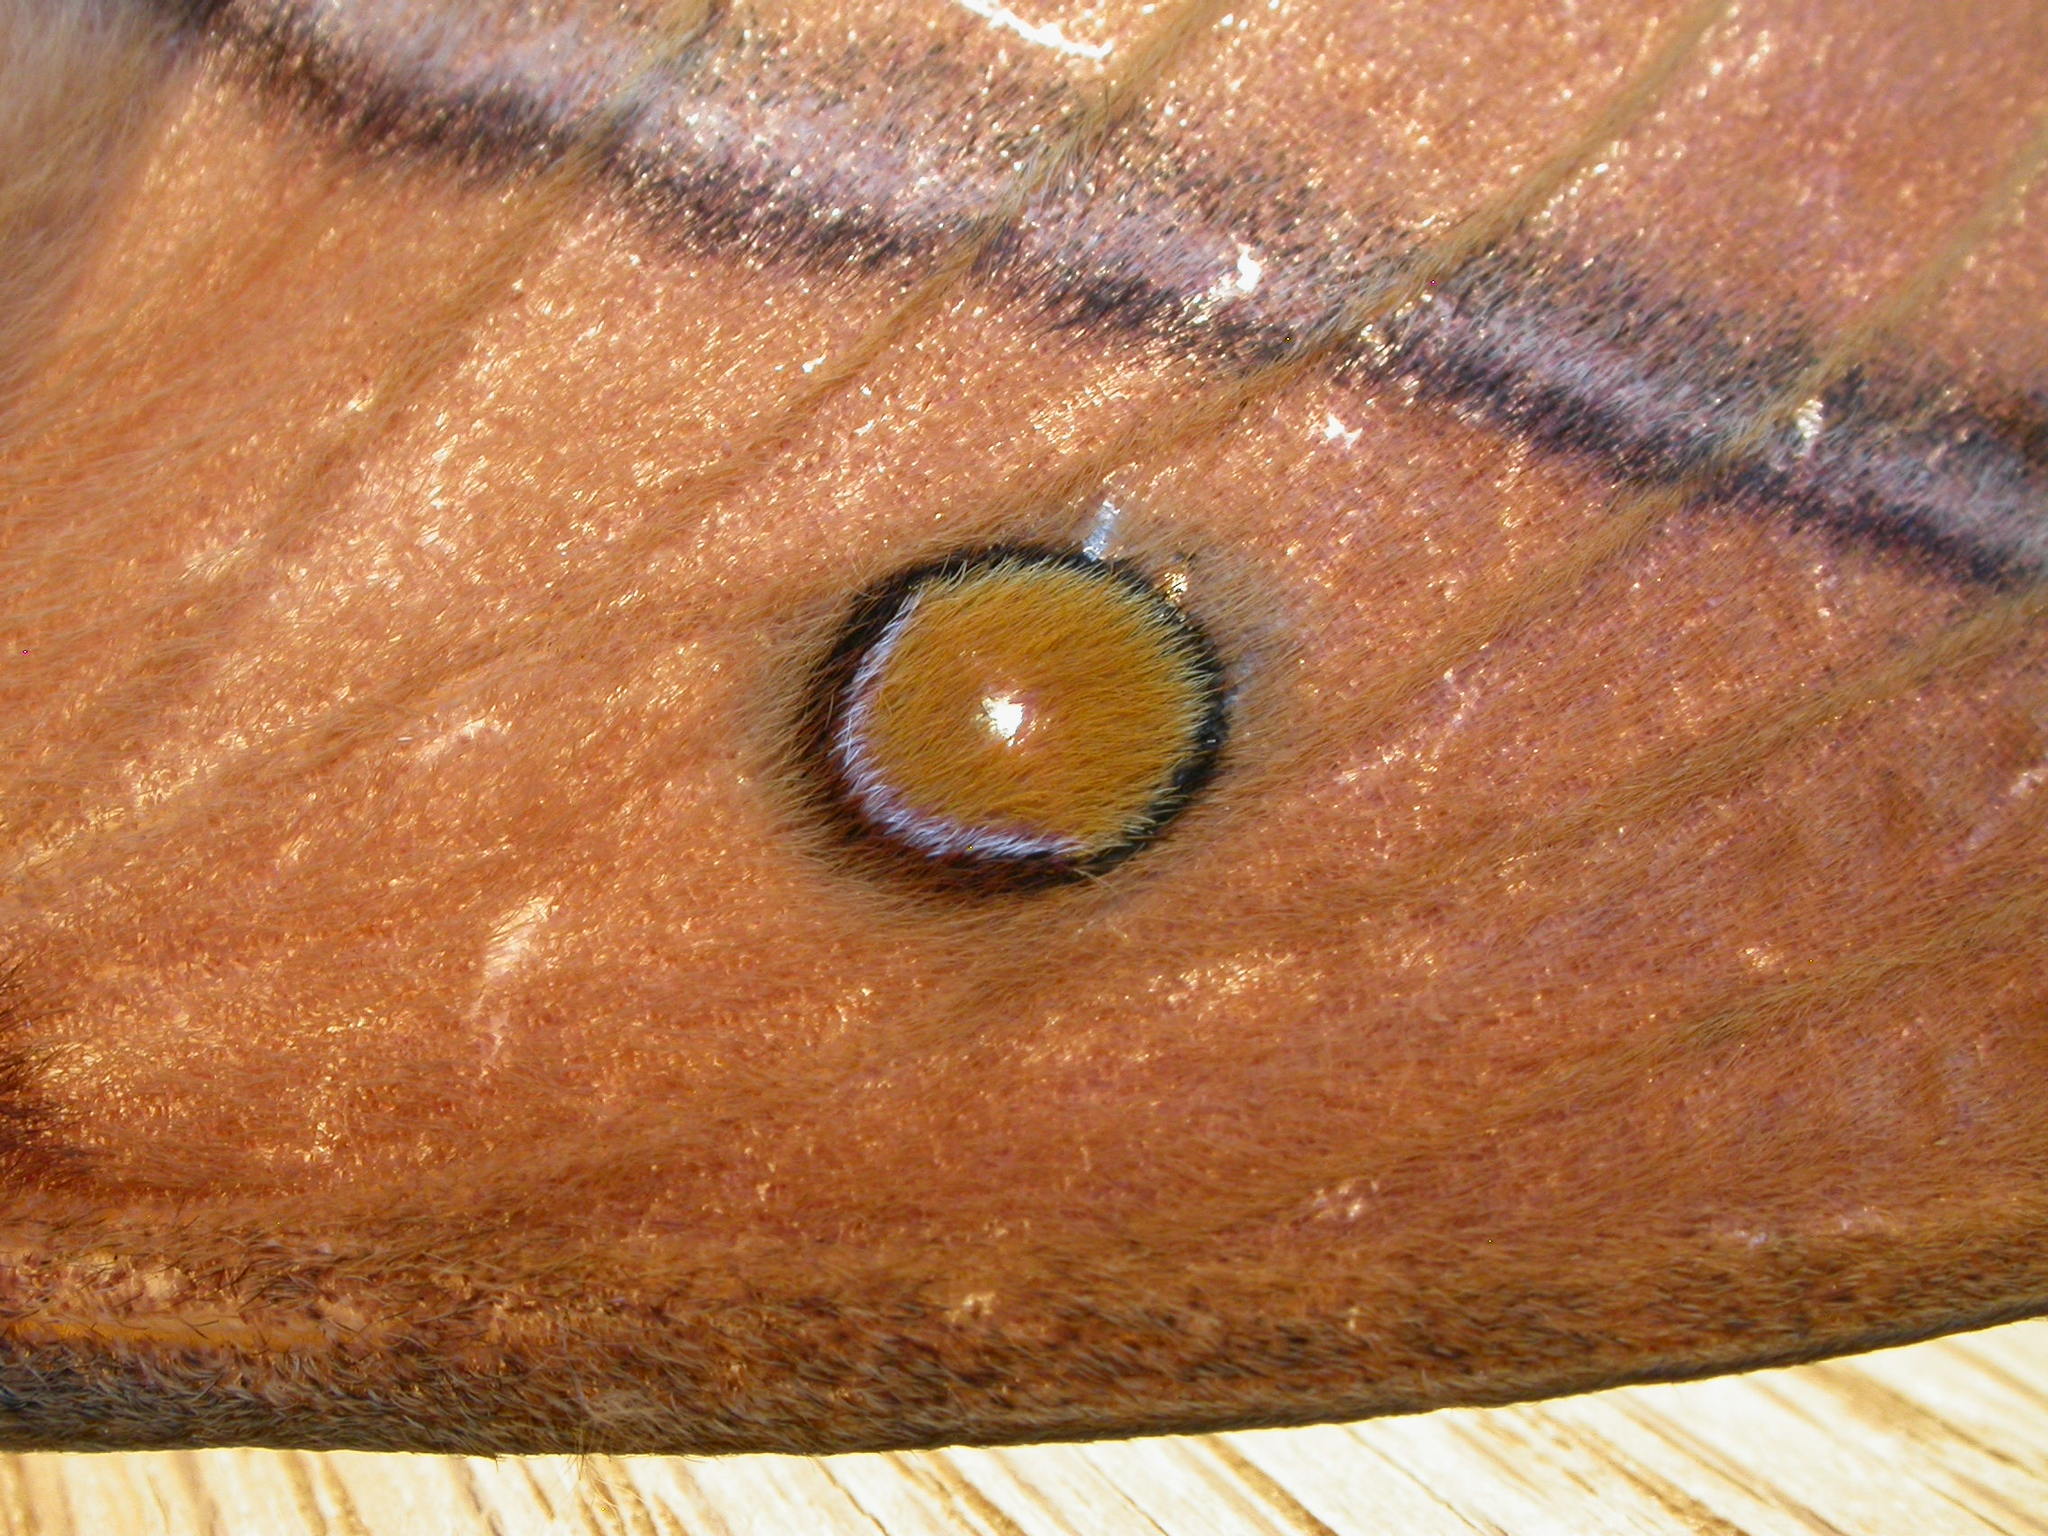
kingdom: Animalia
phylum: Arthropoda
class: Insecta
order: Lepidoptera
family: Saturniidae
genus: Opodiphthera
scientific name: Opodiphthera
